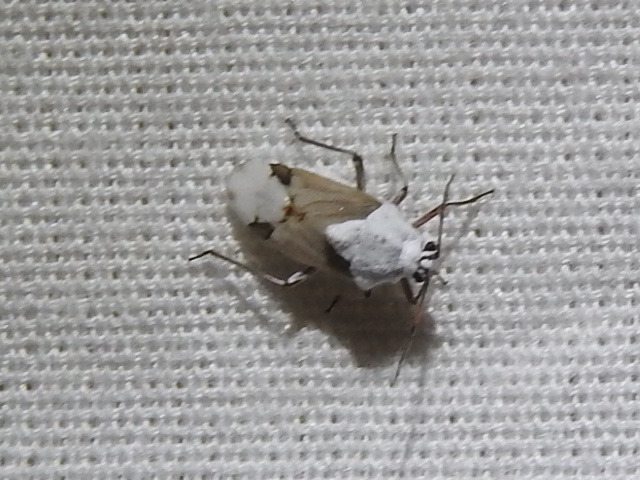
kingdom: Animalia
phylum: Arthropoda
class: Insecta
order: Hemiptera
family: Miridae
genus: Clivinema
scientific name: Clivinema villosa
